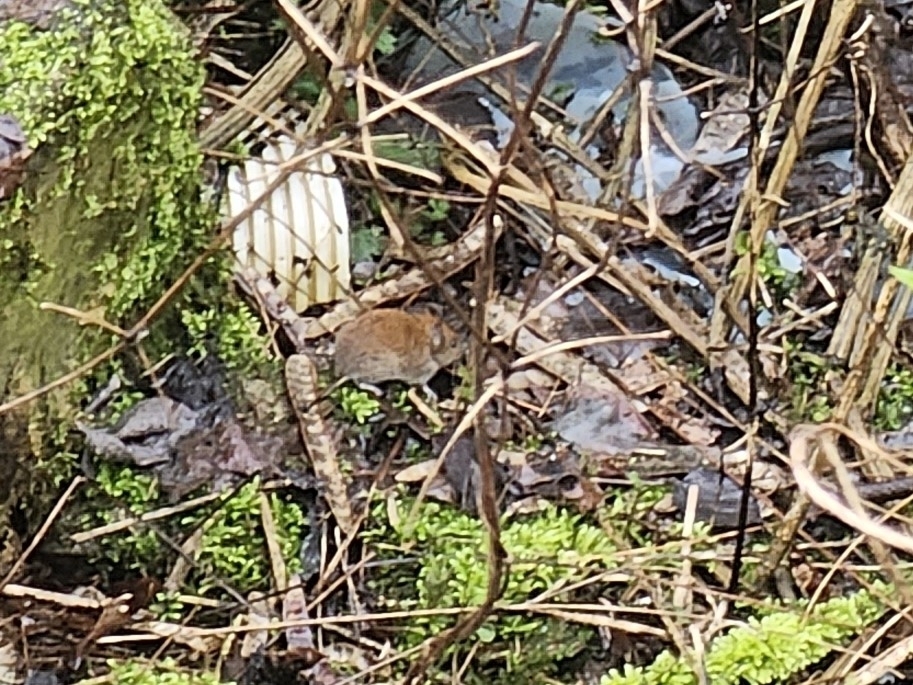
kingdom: Animalia
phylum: Chordata
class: Mammalia
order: Rodentia
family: Cricetidae
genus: Myodes
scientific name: Myodes glareolus
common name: Bank vole
